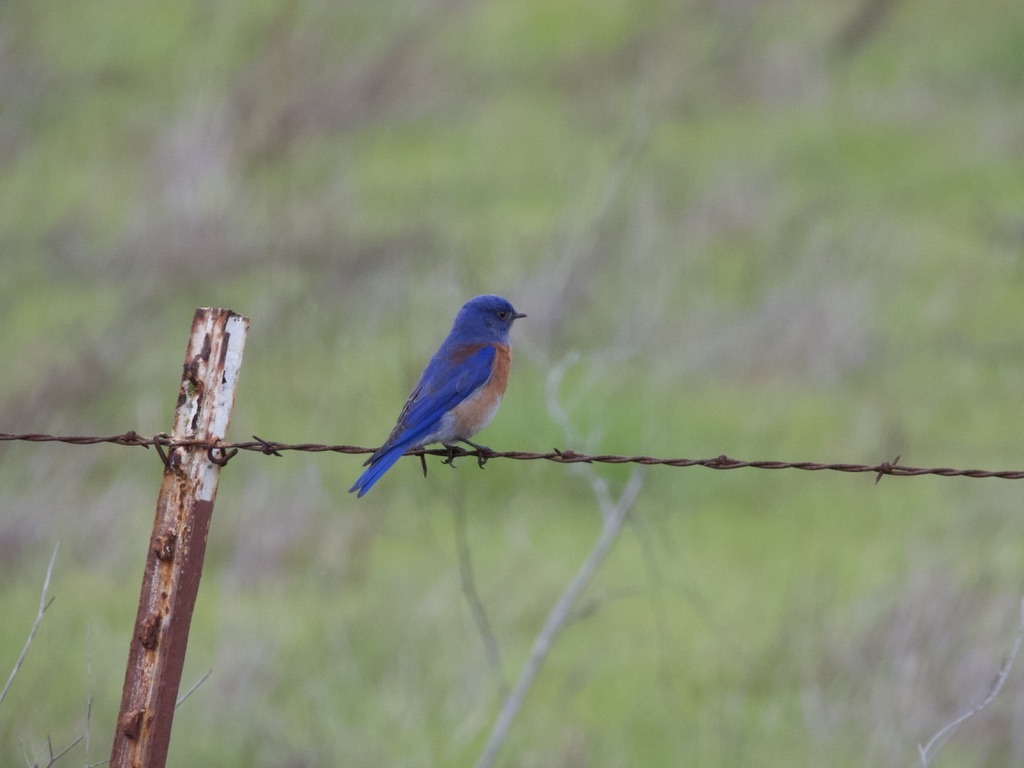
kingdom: Animalia
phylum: Chordata
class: Aves
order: Passeriformes
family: Turdidae
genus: Sialia
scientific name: Sialia mexicana
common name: Western bluebird
